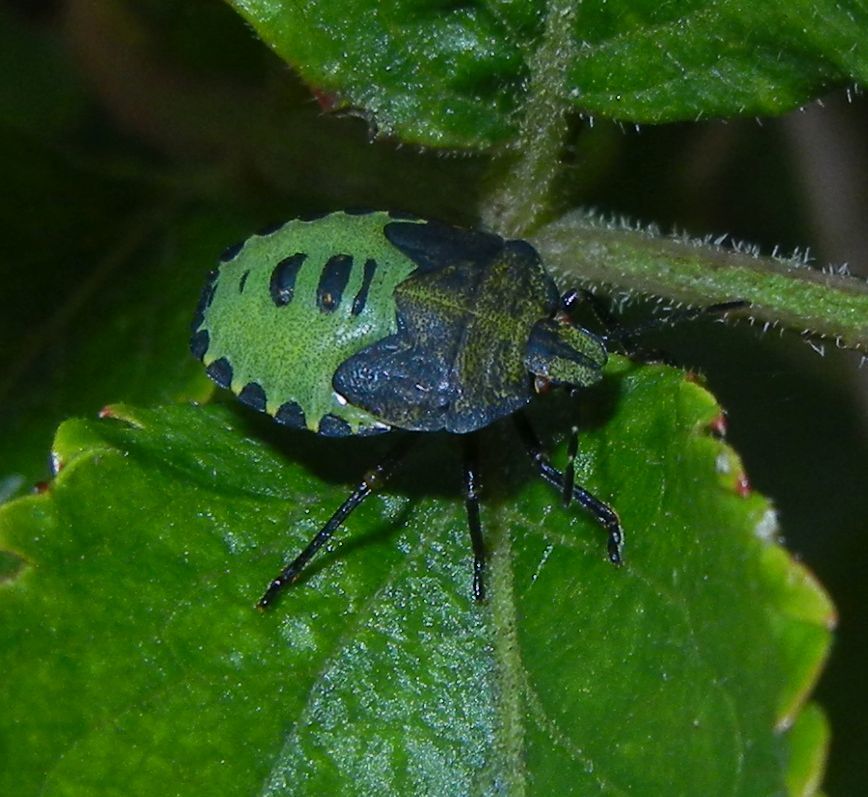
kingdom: Animalia
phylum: Arthropoda
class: Insecta
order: Hemiptera
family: Pentatomidae
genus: Palomena
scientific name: Palomena prasina
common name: Green shieldbug
